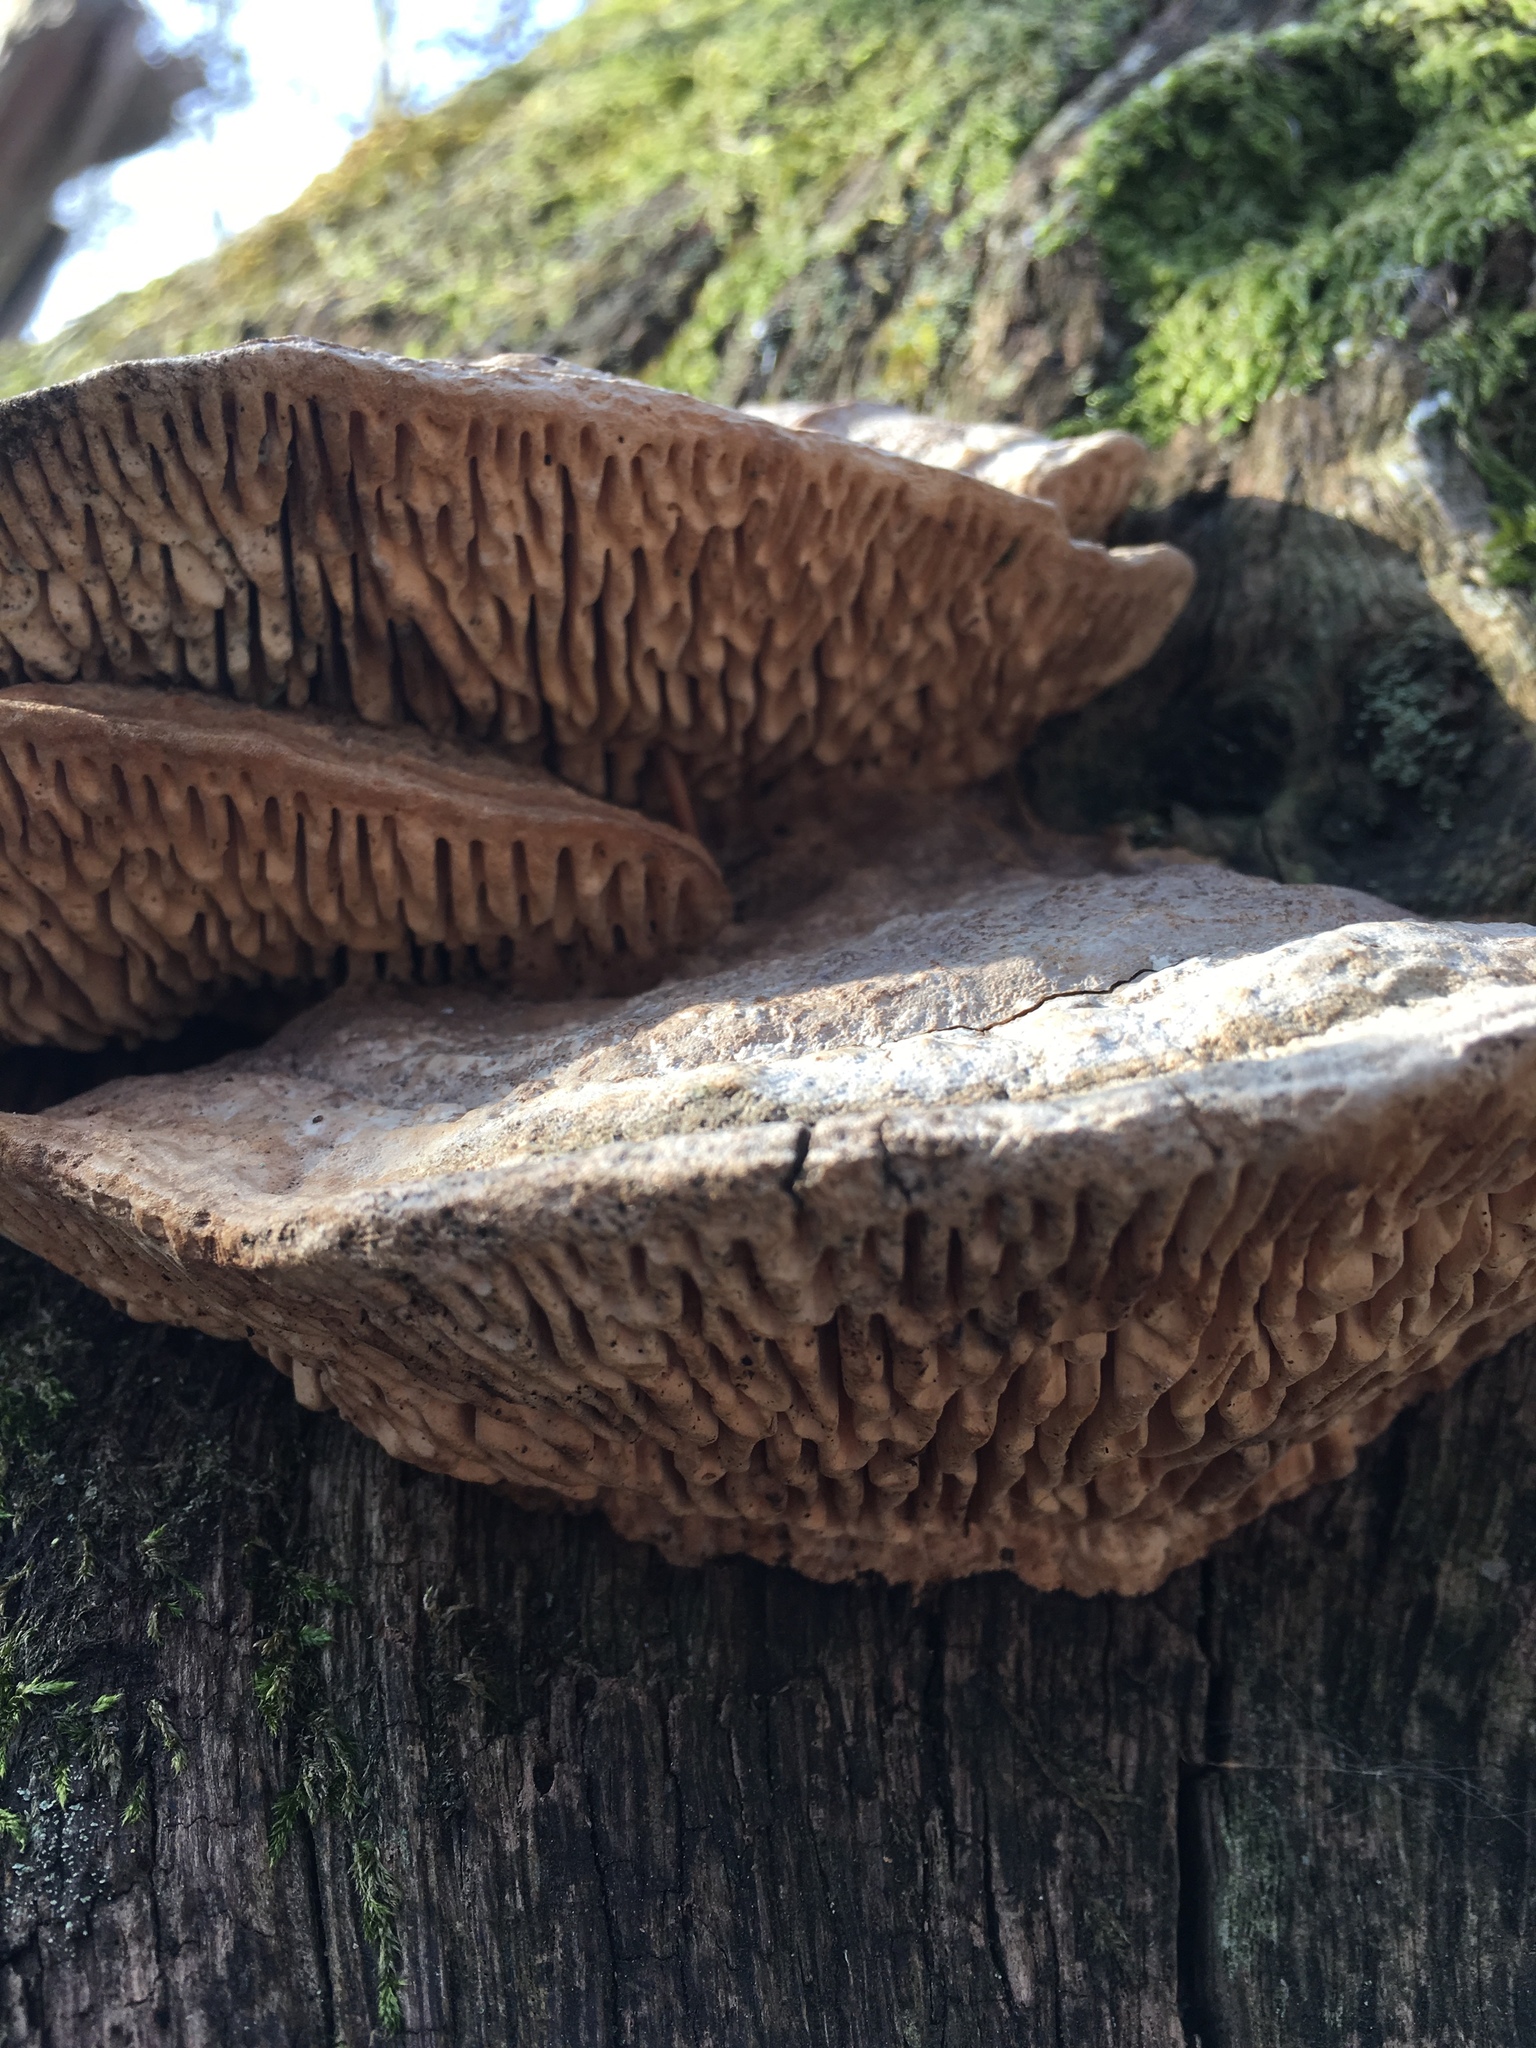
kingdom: Fungi
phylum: Basidiomycota
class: Agaricomycetes
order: Polyporales
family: Fomitopsidaceae
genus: Fomitopsis
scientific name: Fomitopsis
